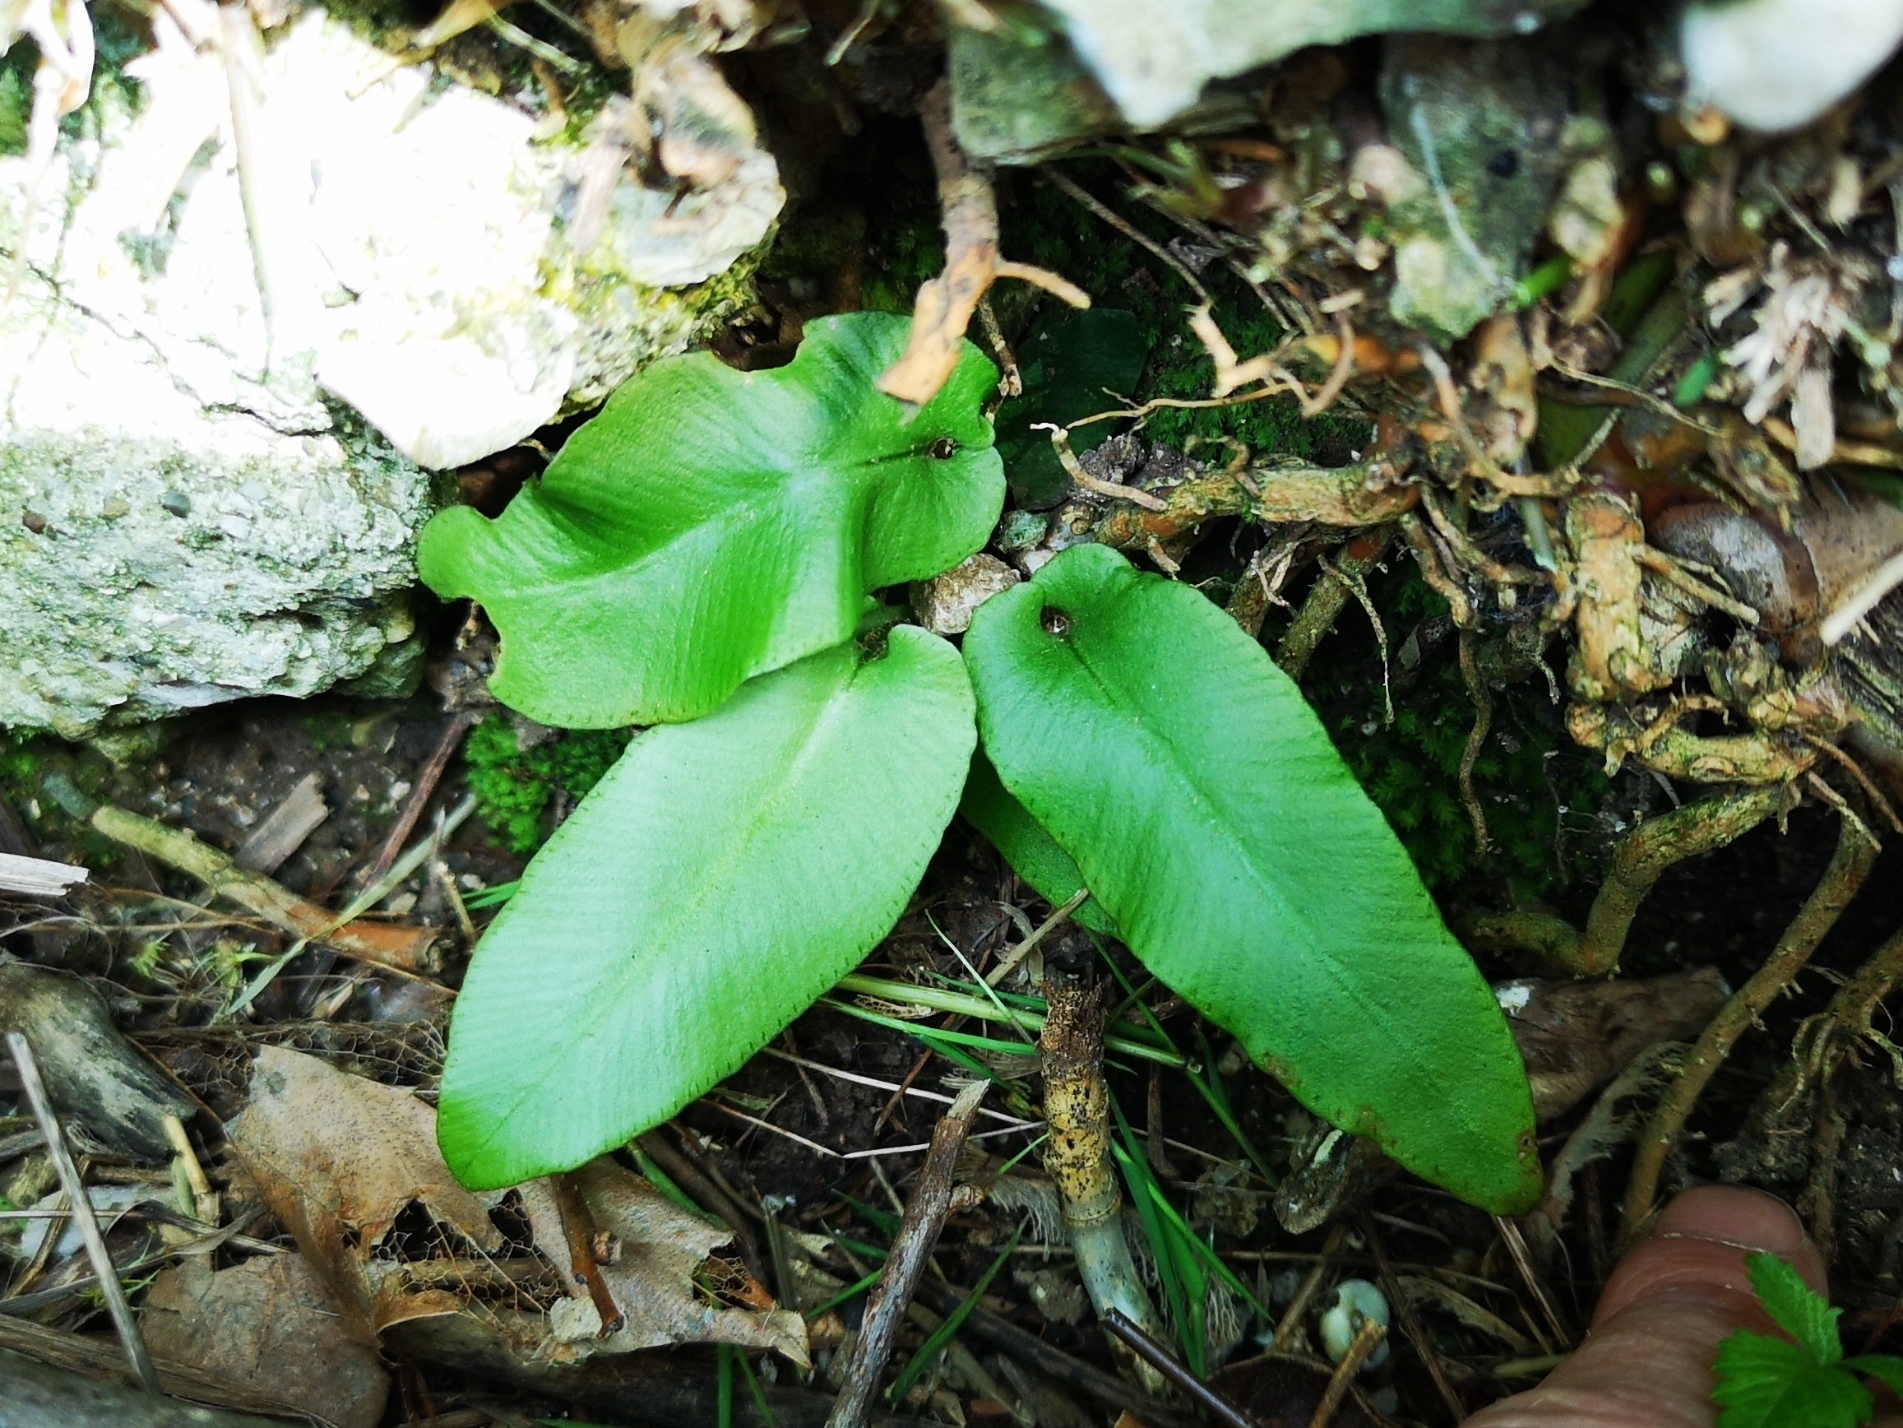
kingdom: Plantae
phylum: Tracheophyta
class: Polypodiopsida
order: Polypodiales
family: Aspleniaceae
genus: Asplenium
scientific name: Asplenium scolopendrium
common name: Hart's-tongue fern
